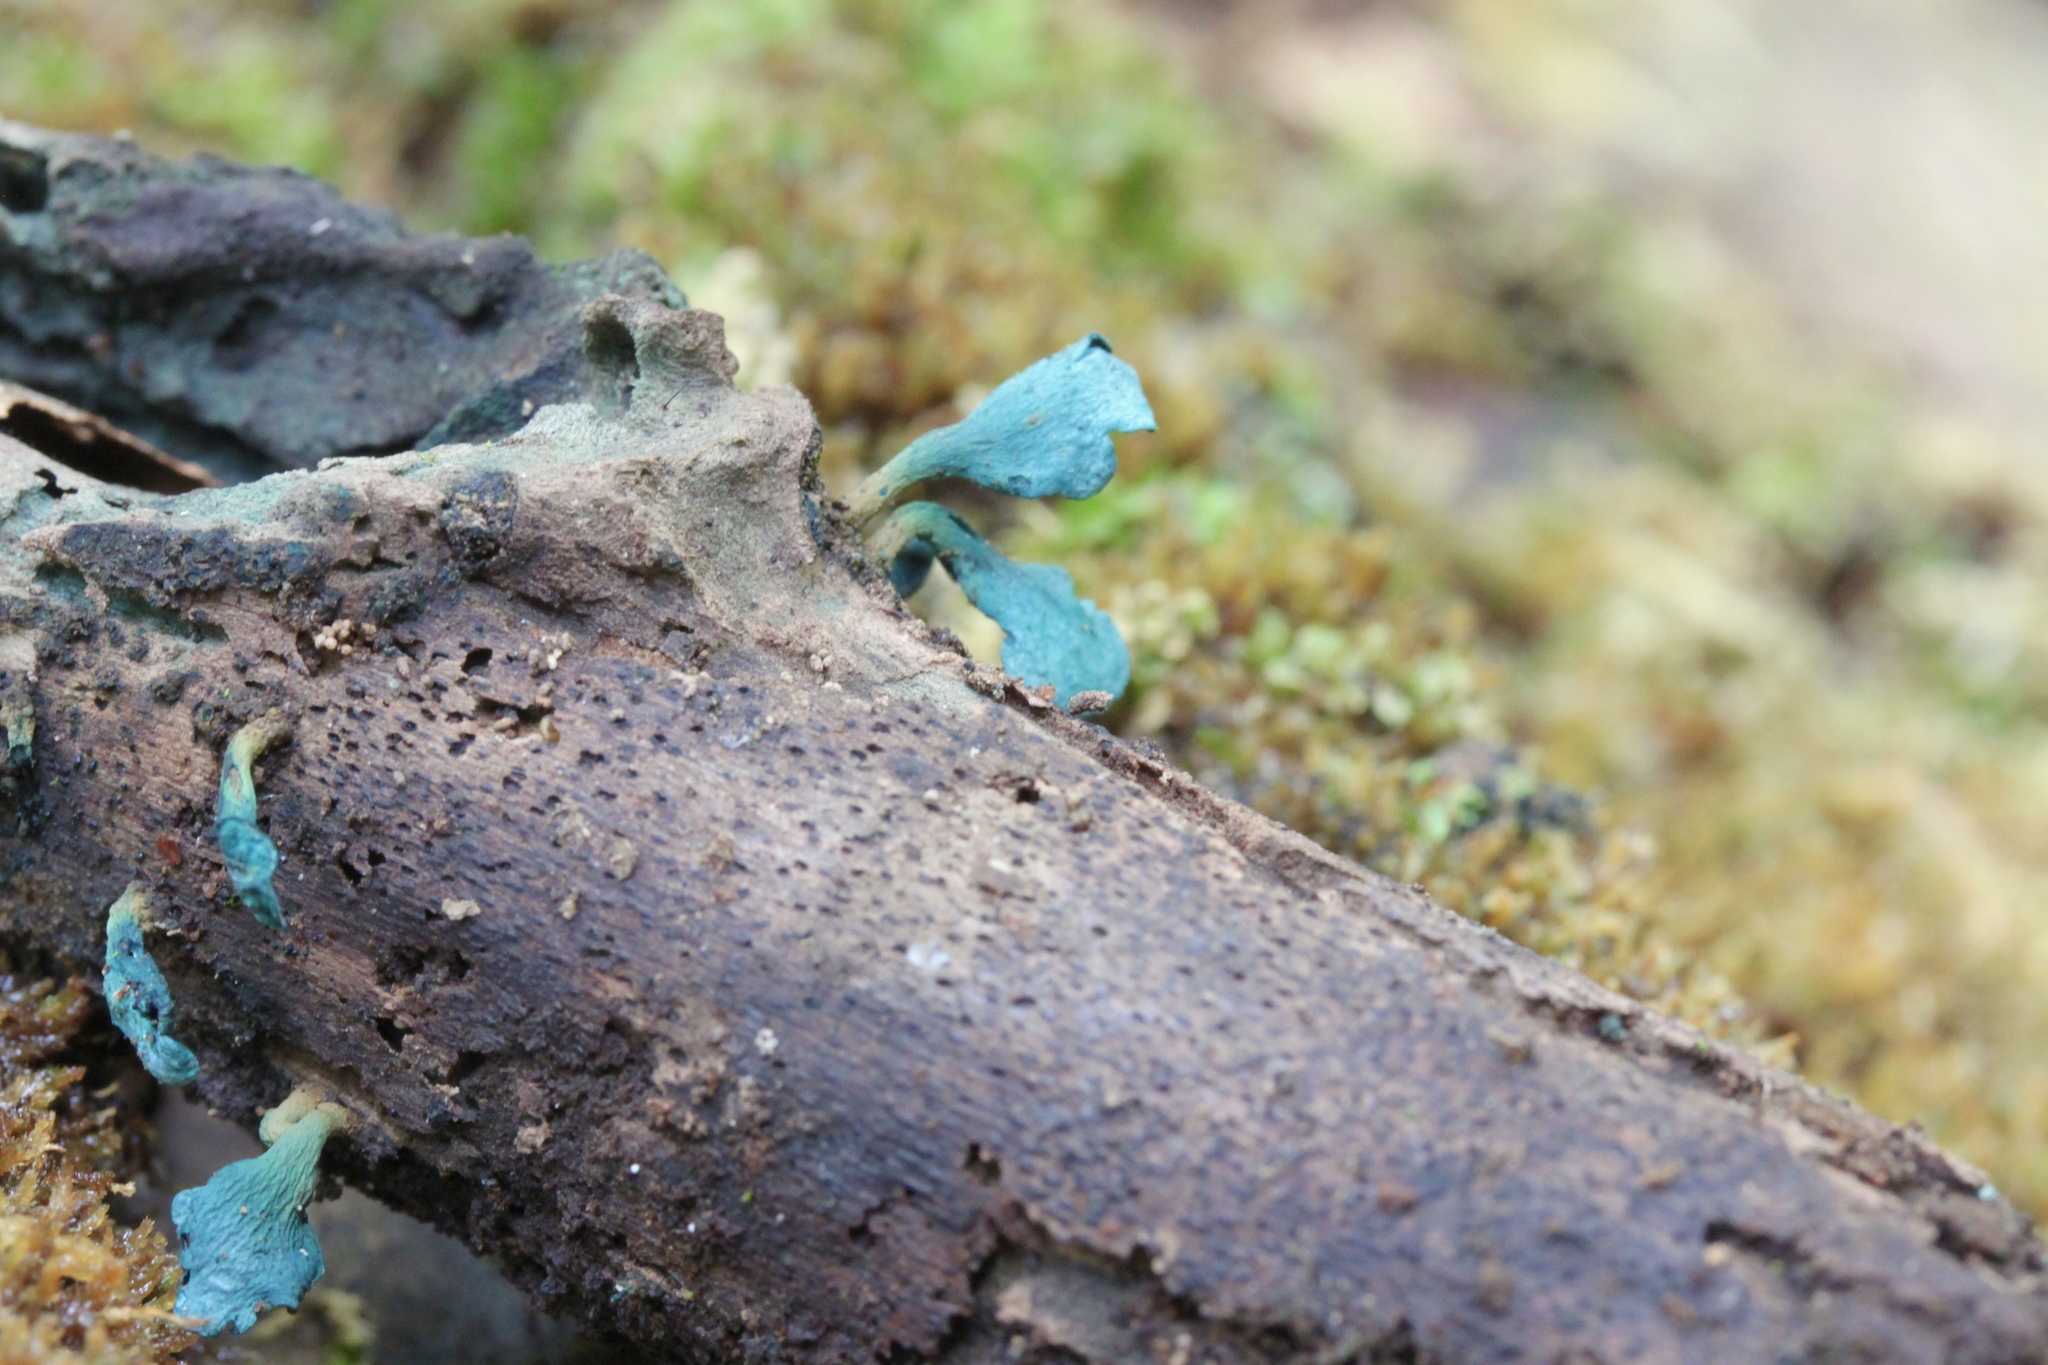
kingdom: Fungi
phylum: Ascomycota
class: Leotiomycetes
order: Helotiales
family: Chlorociboriaceae
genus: Chlorociboria
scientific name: Chlorociboria aeruginascens
